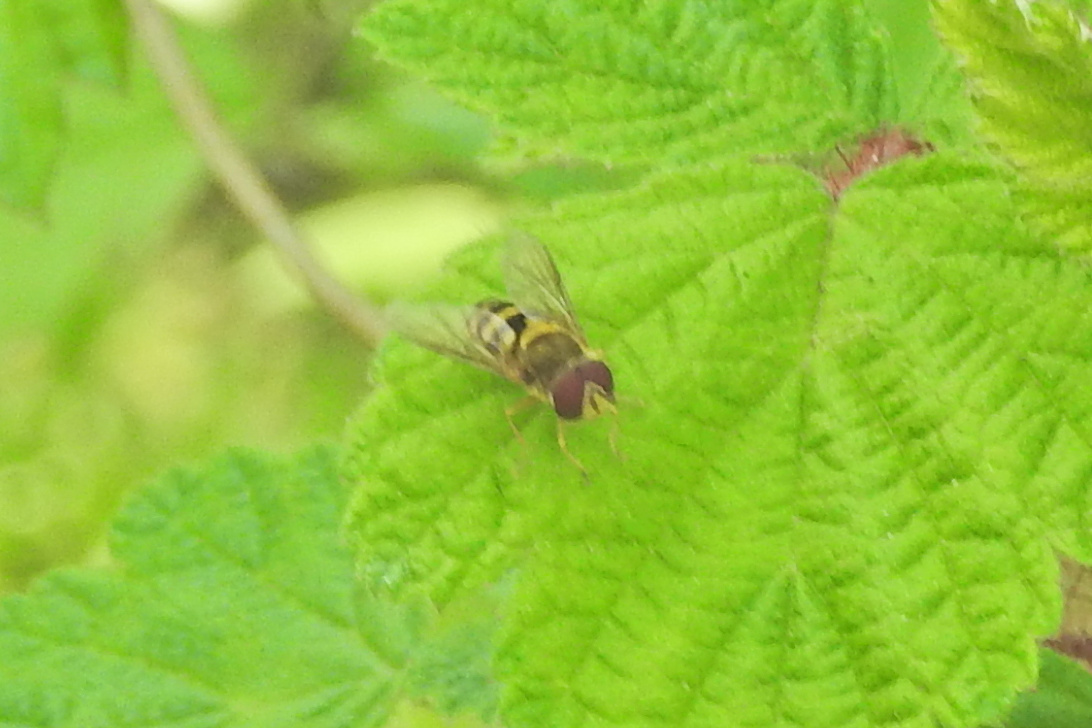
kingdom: Animalia
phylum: Arthropoda
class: Insecta
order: Diptera
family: Syrphidae
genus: Syrphus
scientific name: Syrphus
